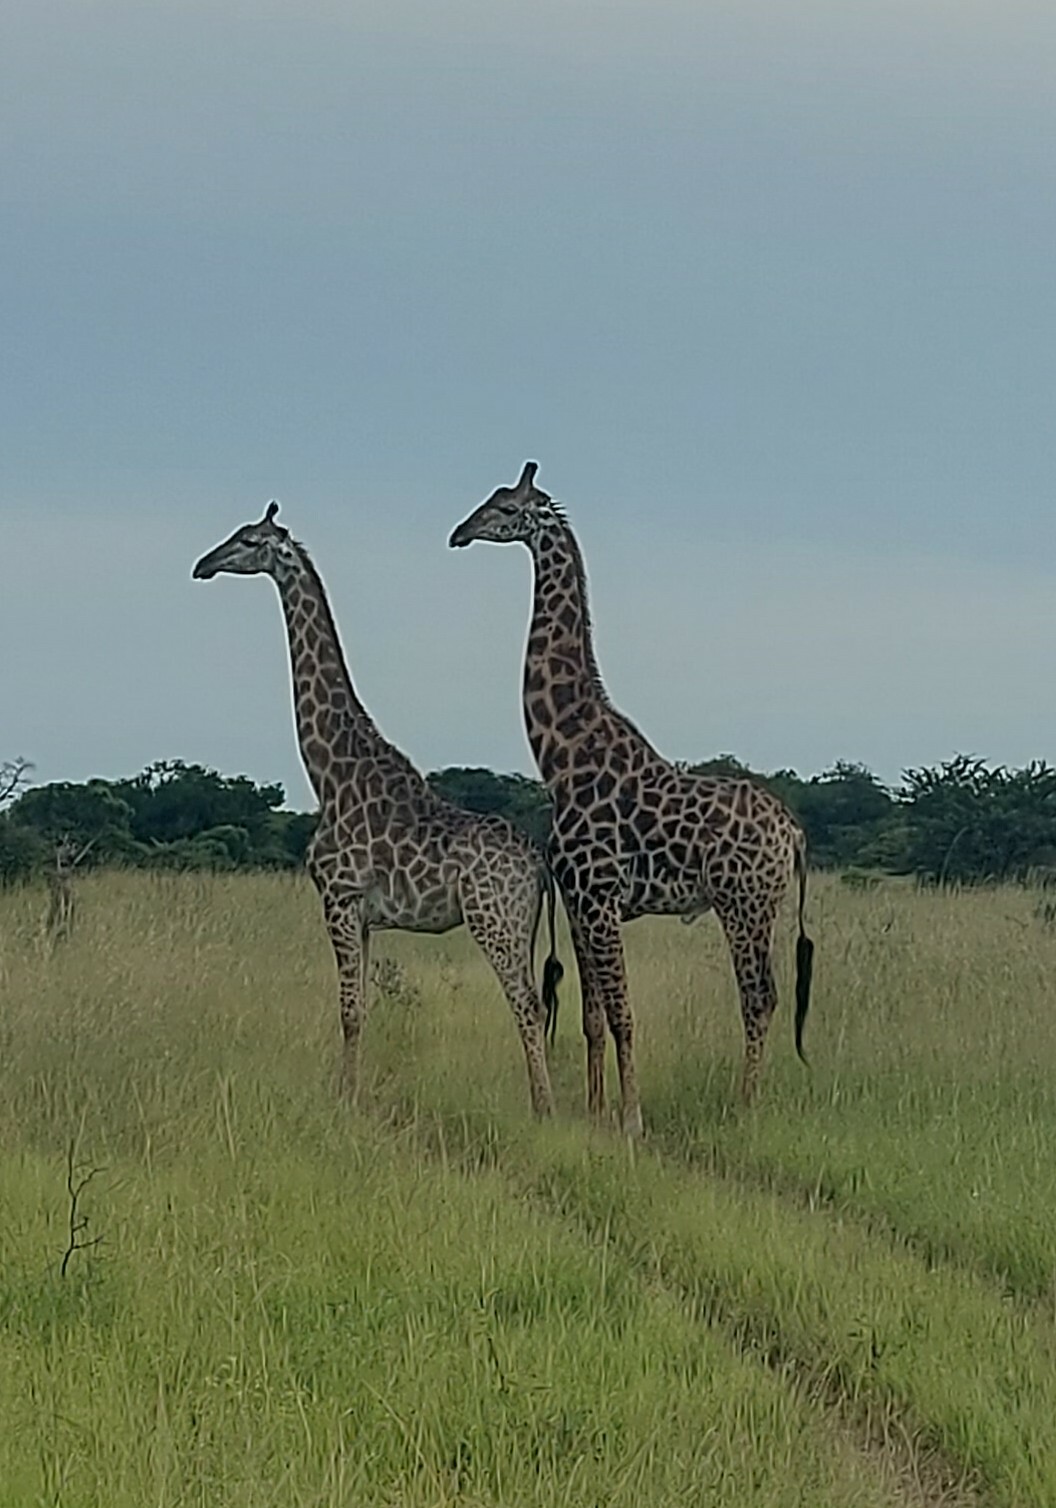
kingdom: Animalia
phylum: Chordata
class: Mammalia
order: Artiodactyla
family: Giraffidae
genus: Giraffa
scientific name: Giraffa giraffa
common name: Southern giraffe
